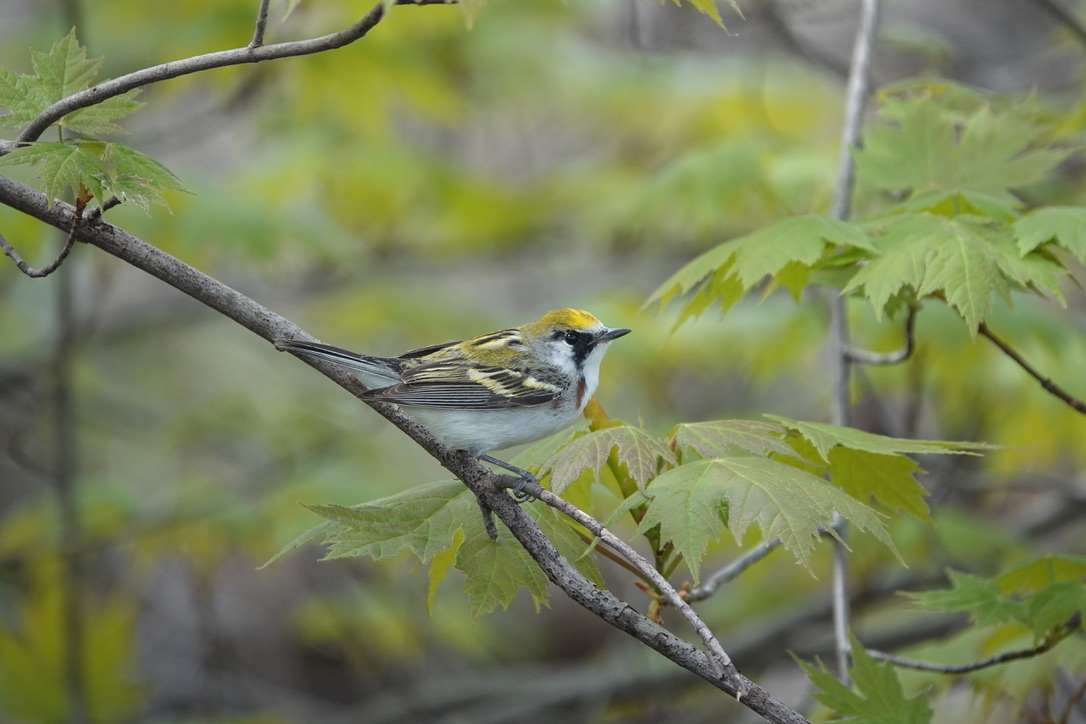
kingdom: Animalia
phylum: Chordata
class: Aves
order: Passeriformes
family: Parulidae
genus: Setophaga
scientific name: Setophaga pensylvanica
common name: Chestnut-sided warbler
